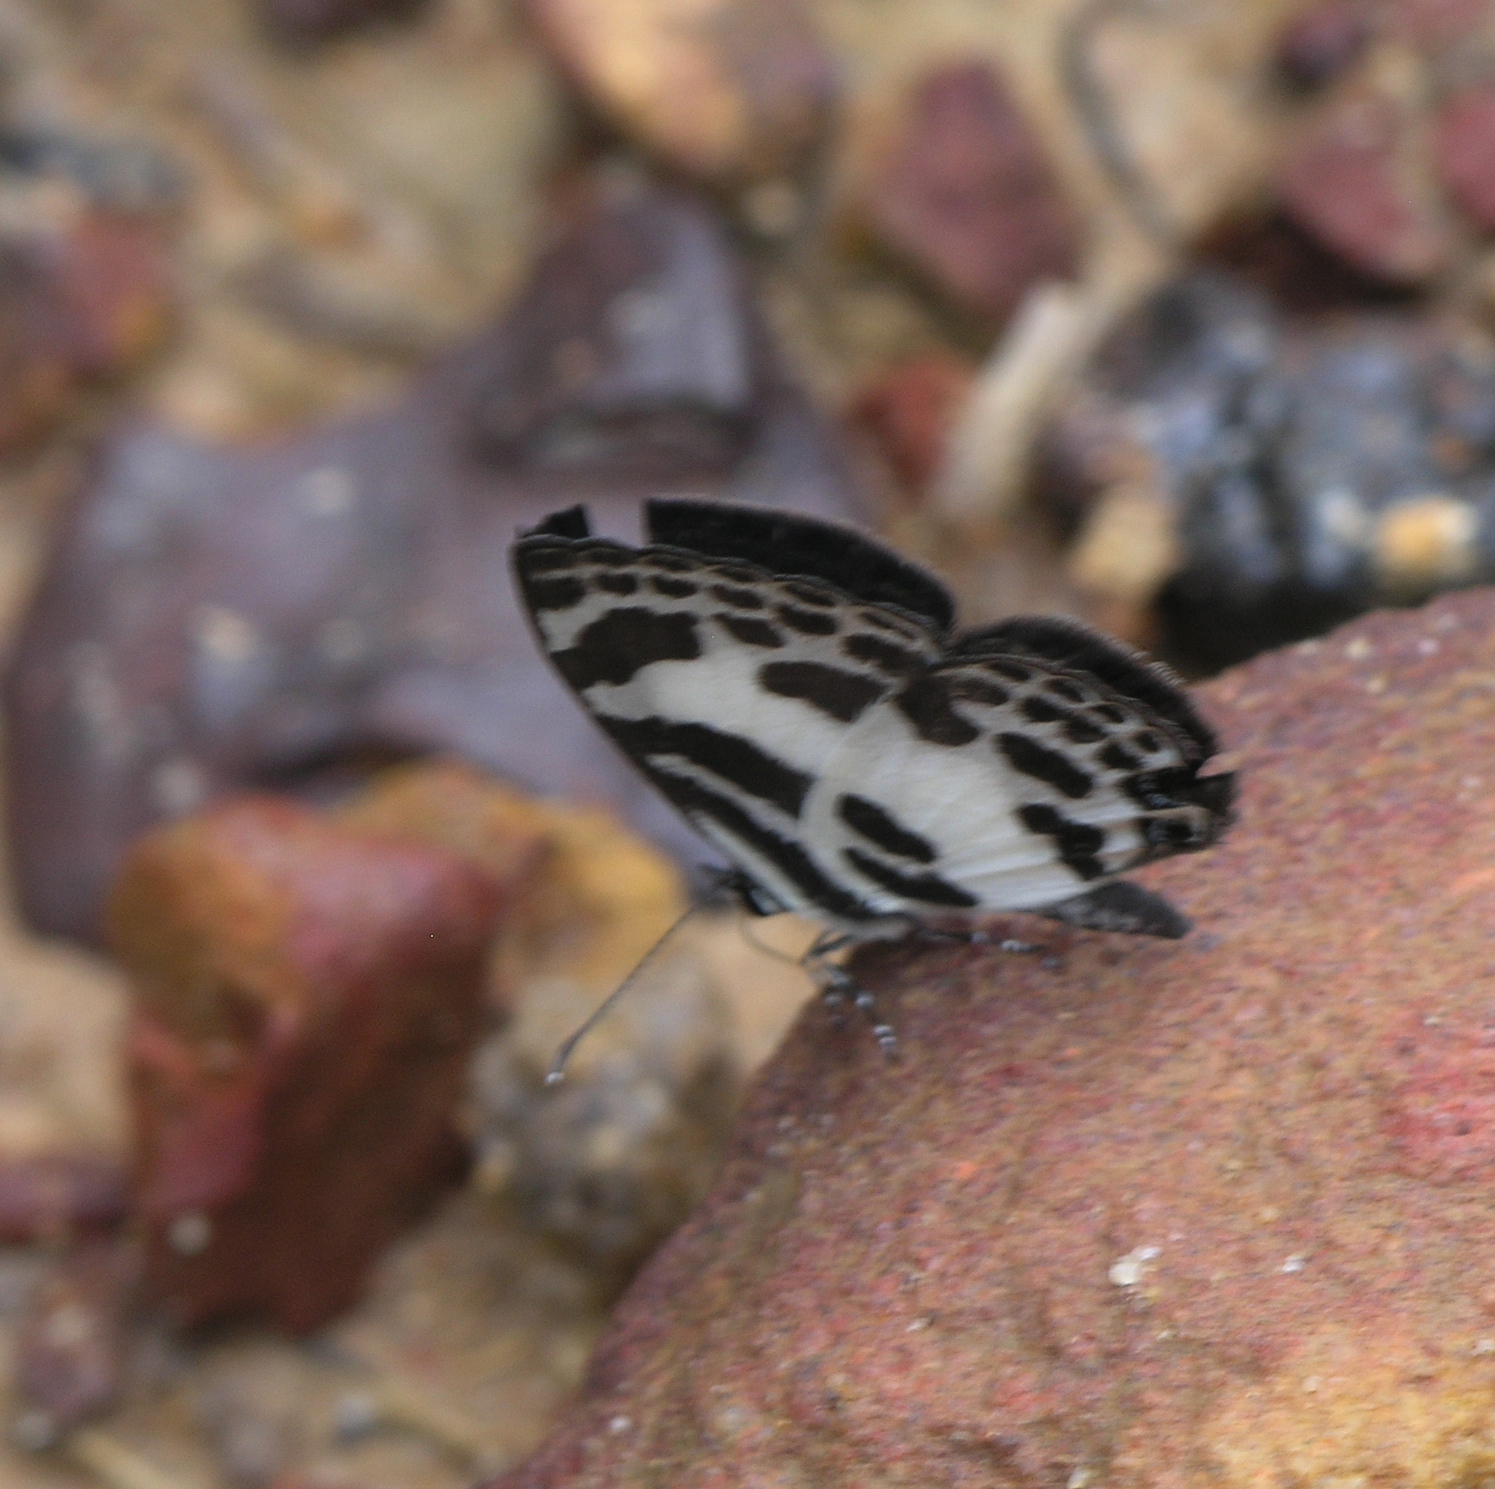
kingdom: Animalia
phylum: Arthropoda
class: Insecta
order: Lepidoptera
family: Lycaenidae
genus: Discolampa
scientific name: Discolampa ethion
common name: Banded blue pierrot
